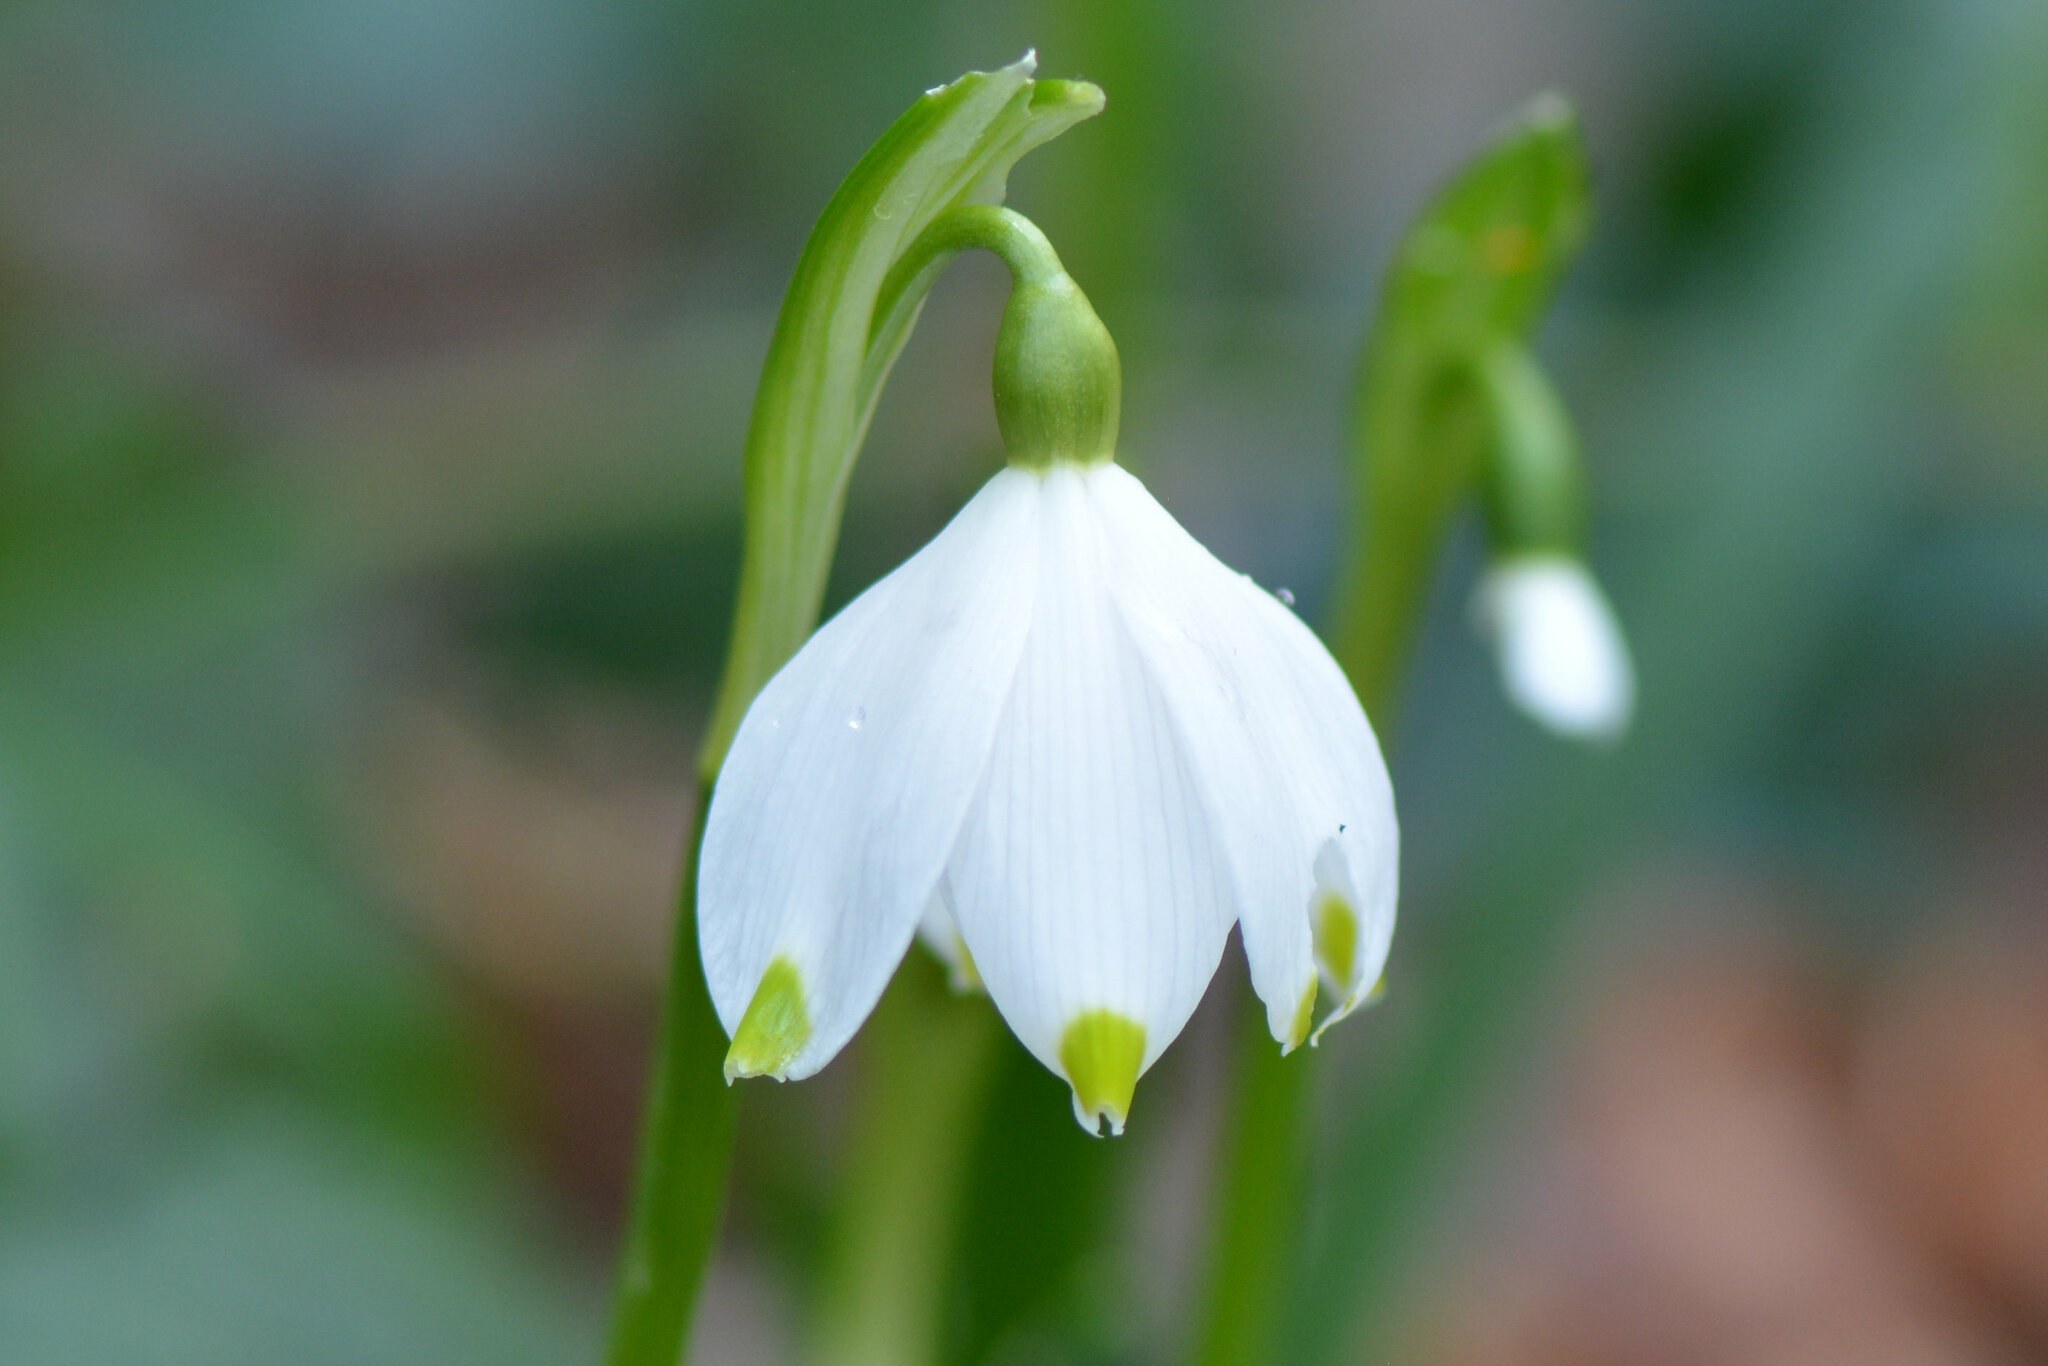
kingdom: Plantae
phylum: Tracheophyta
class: Liliopsida
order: Asparagales
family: Amaryllidaceae
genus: Leucojum
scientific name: Leucojum vernum
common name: Spring snowflake
